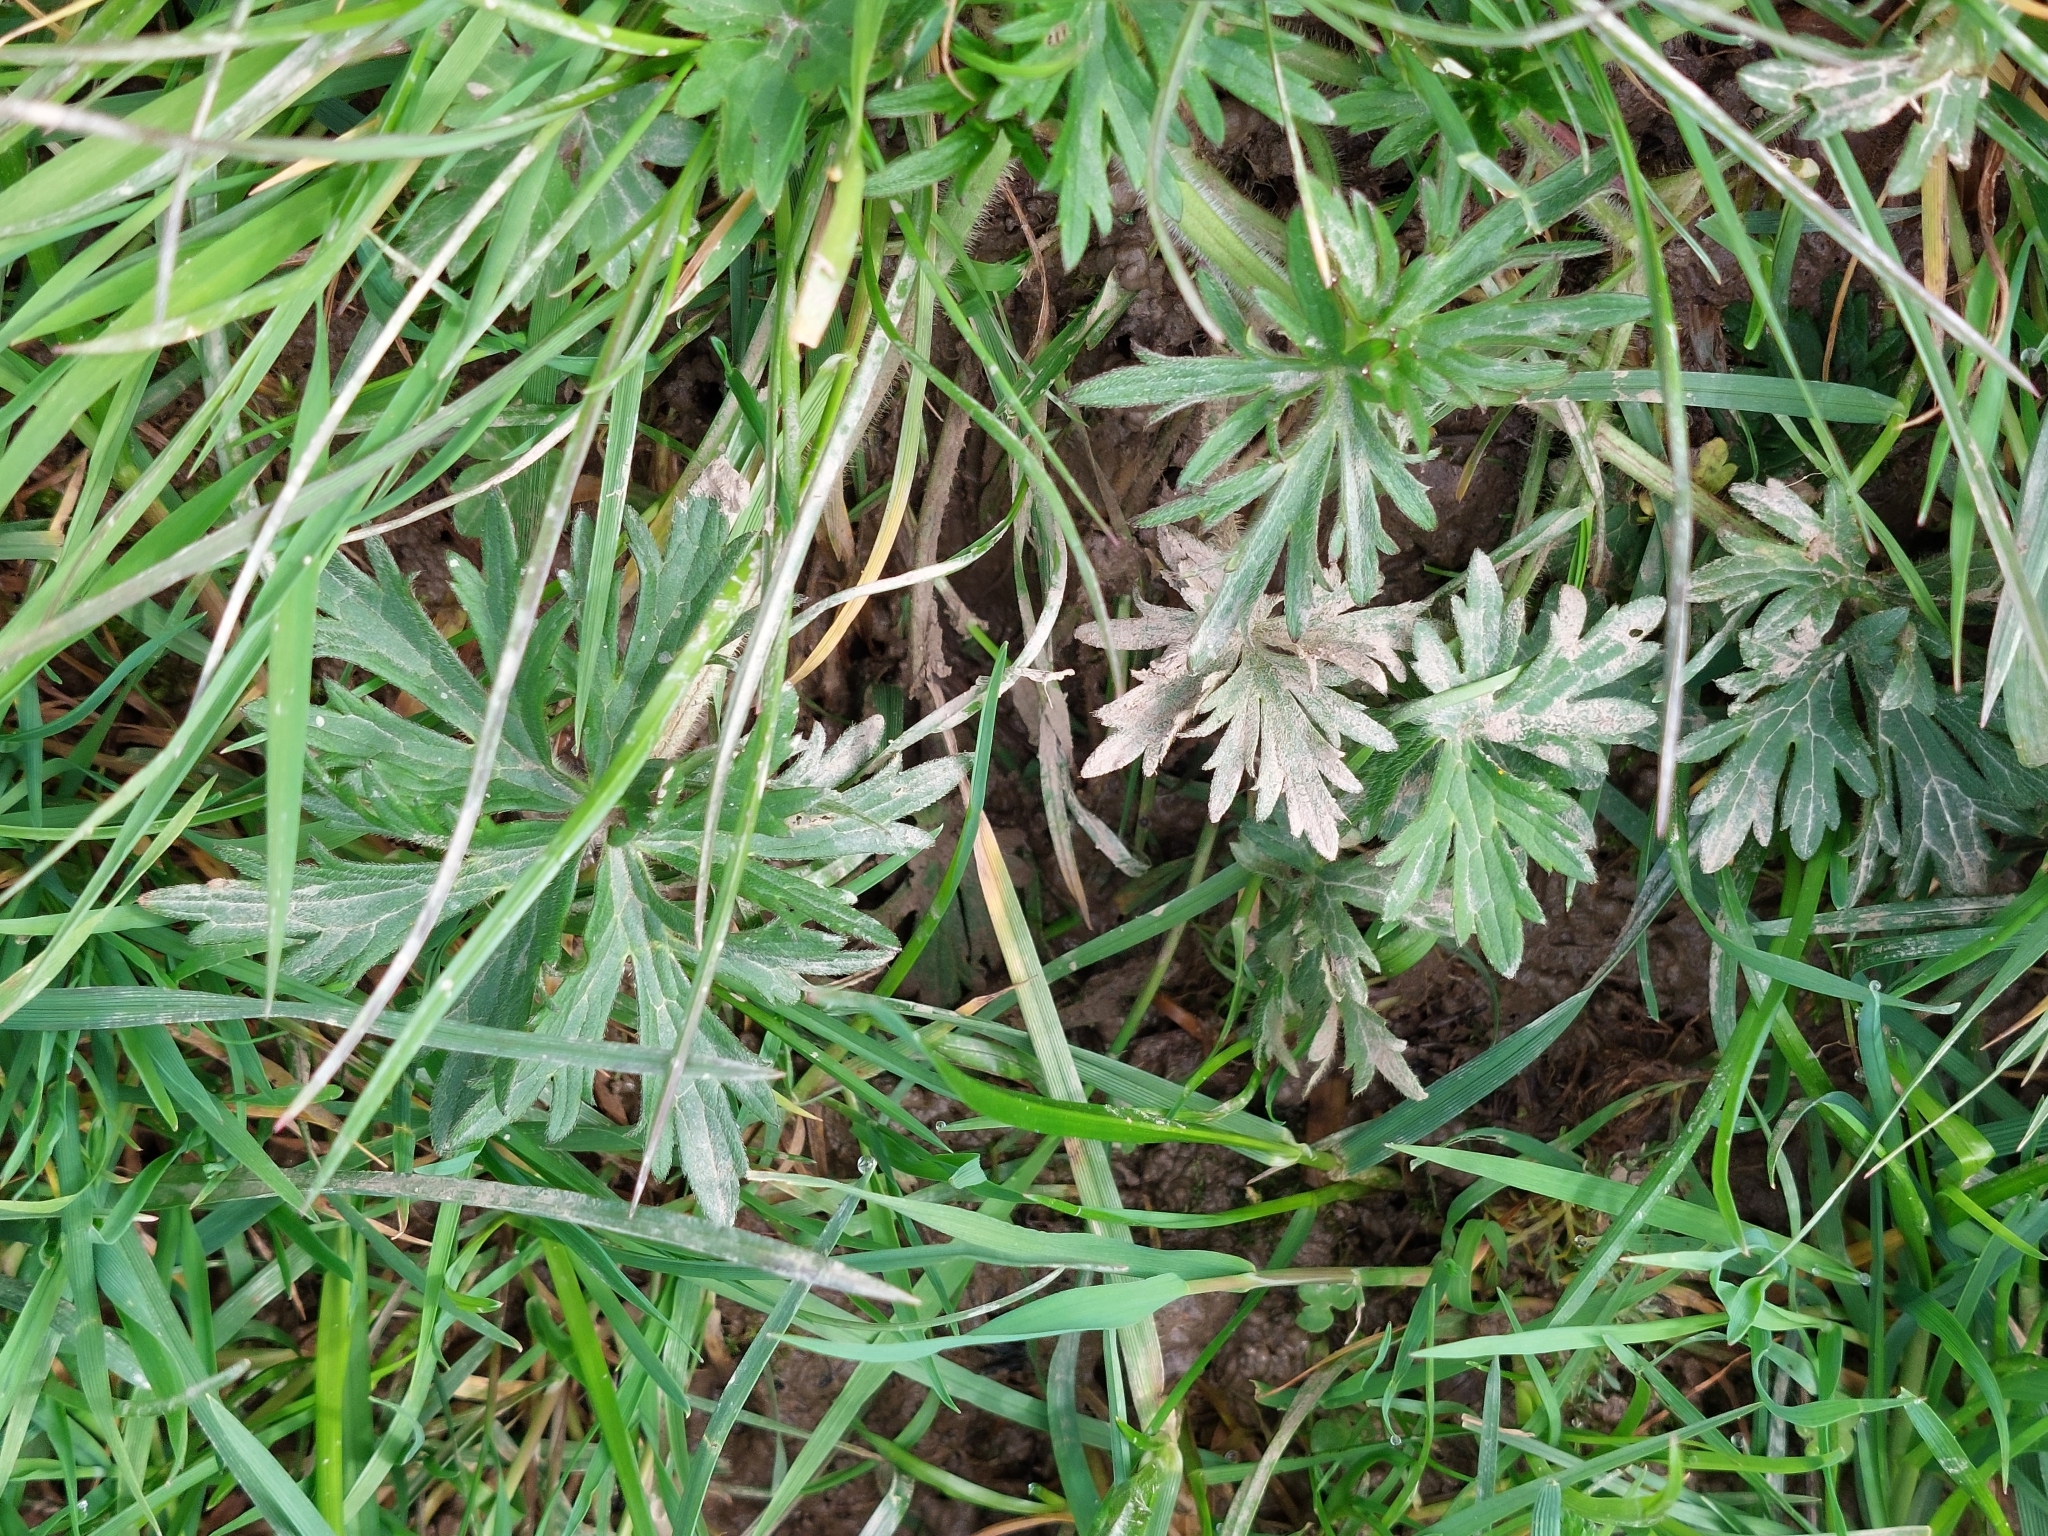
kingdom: Plantae
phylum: Tracheophyta
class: Magnoliopsida
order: Ranunculales
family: Ranunculaceae
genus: Ranunculus
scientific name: Ranunculus acris
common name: Meadow buttercup
